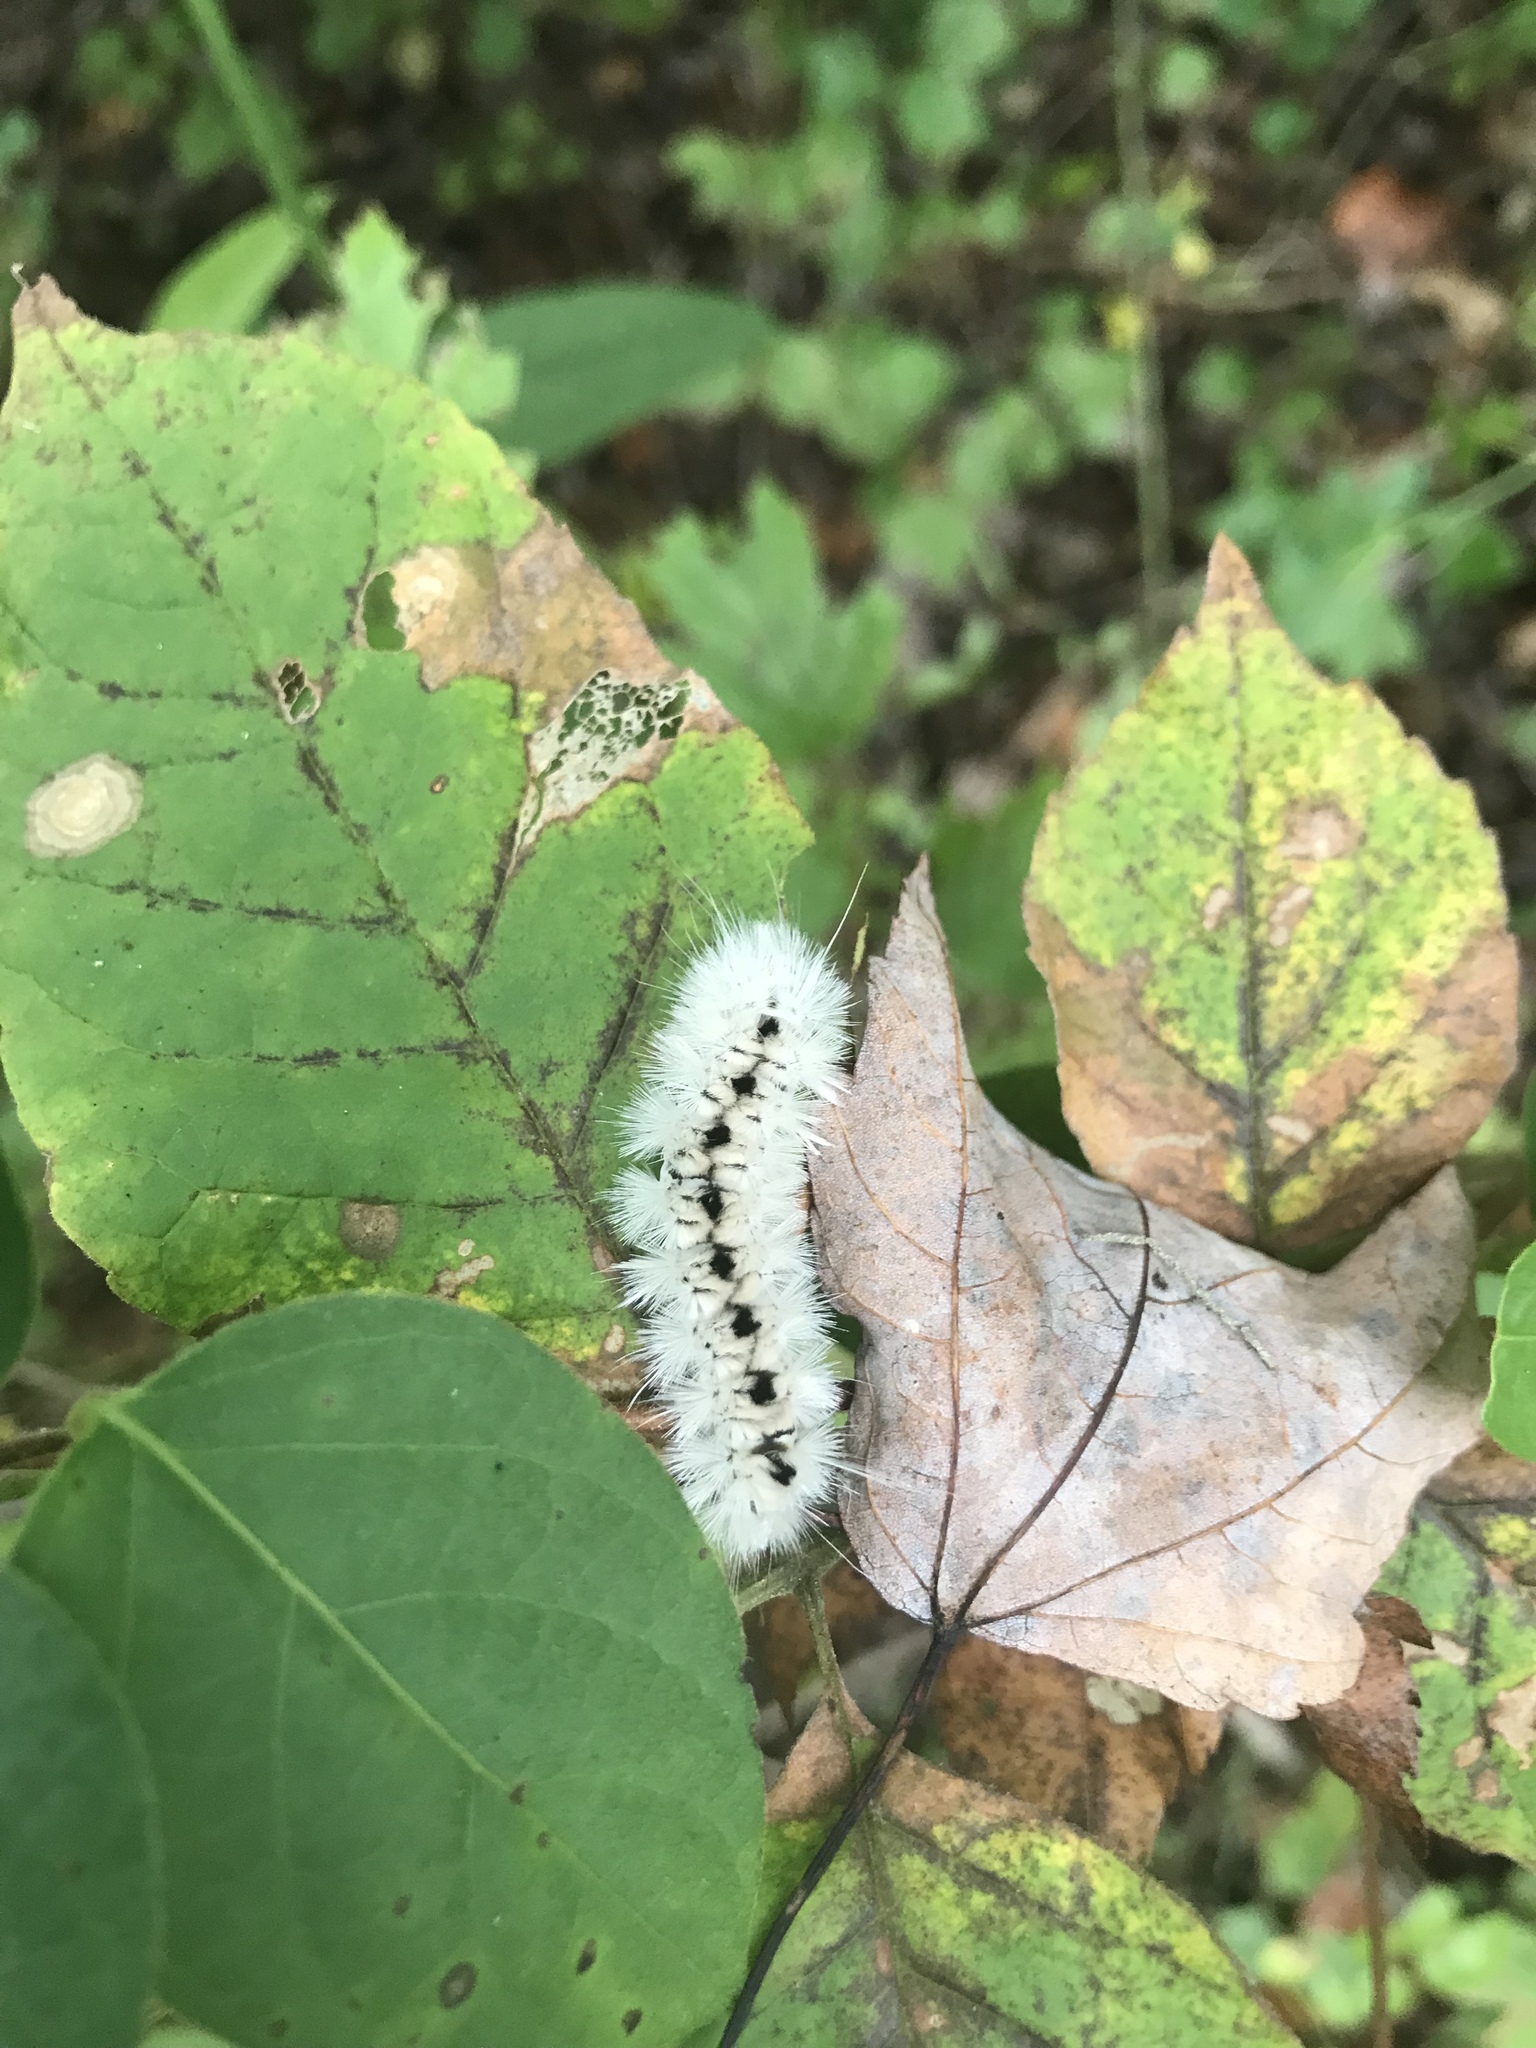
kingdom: Animalia
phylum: Arthropoda
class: Insecta
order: Lepidoptera
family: Erebidae
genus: Lophocampa
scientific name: Lophocampa caryae
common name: Hickory tussock moth
